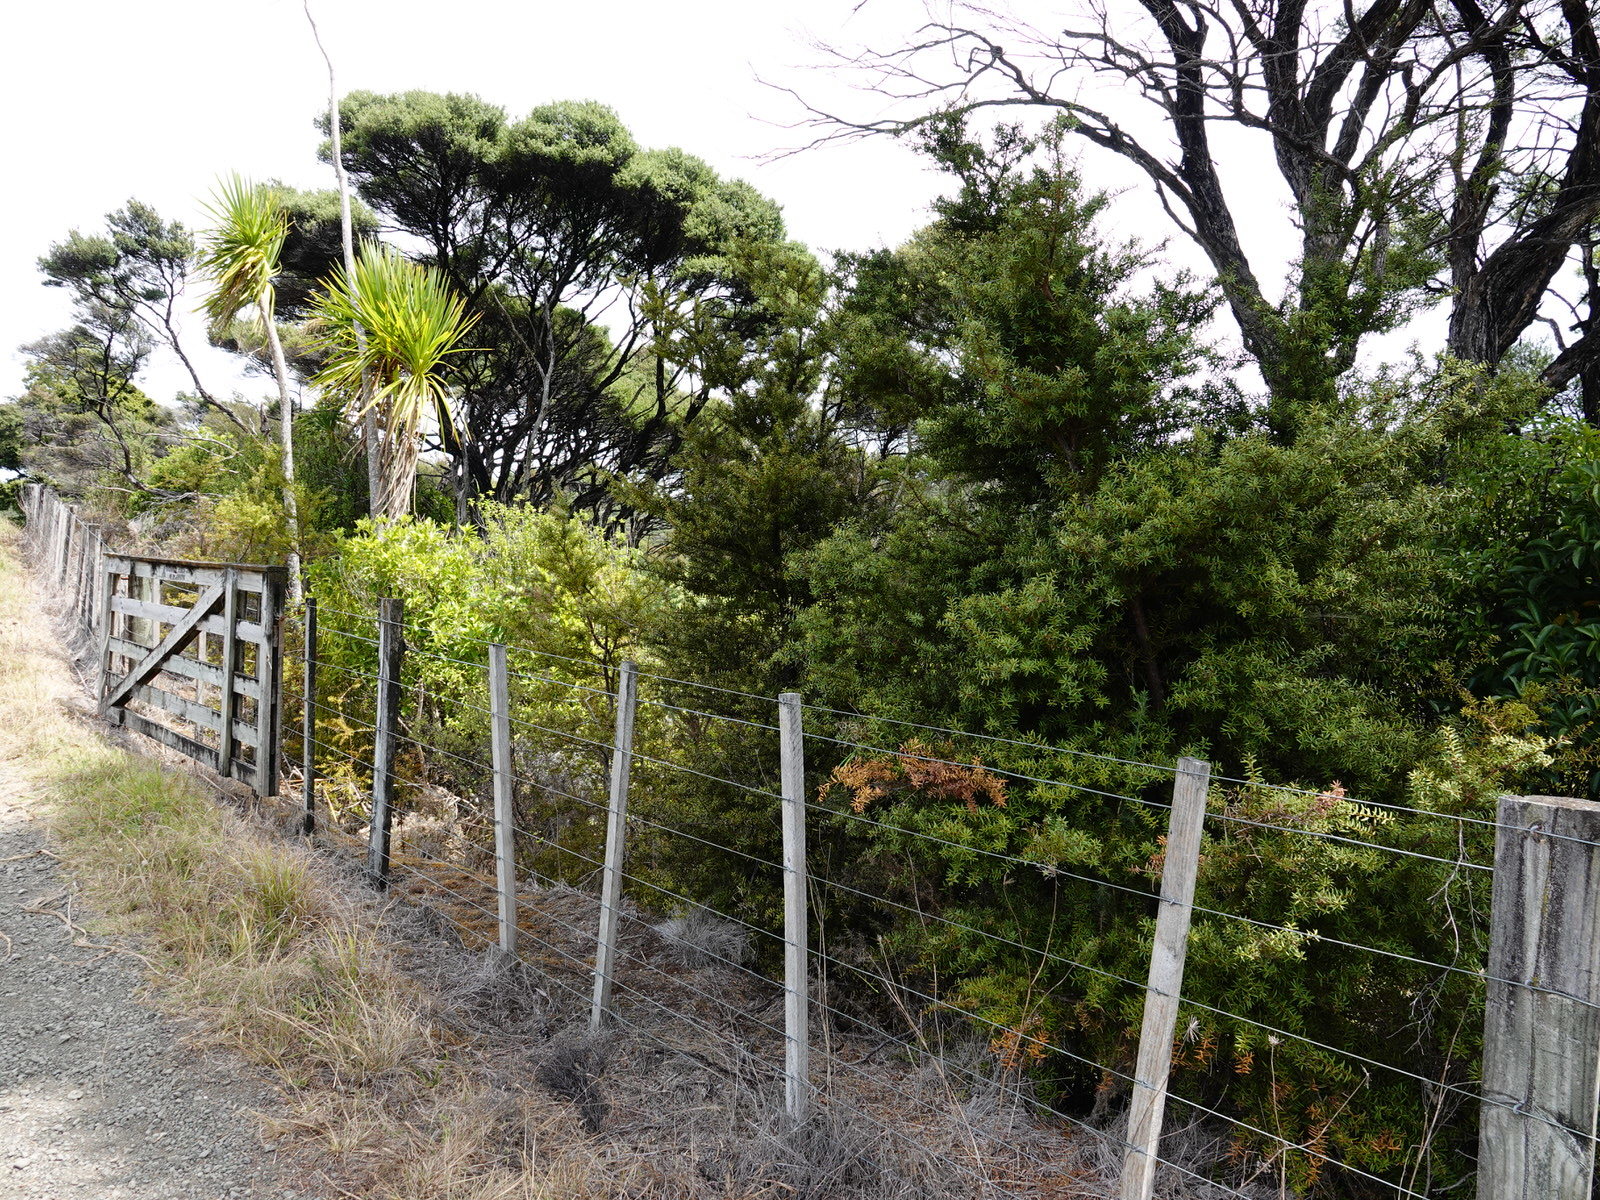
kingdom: Animalia
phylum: Arthropoda
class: Insecta
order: Phasmida
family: Phasmatidae
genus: Clitarchus
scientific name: Clitarchus hookeri
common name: Smooth stick insect
